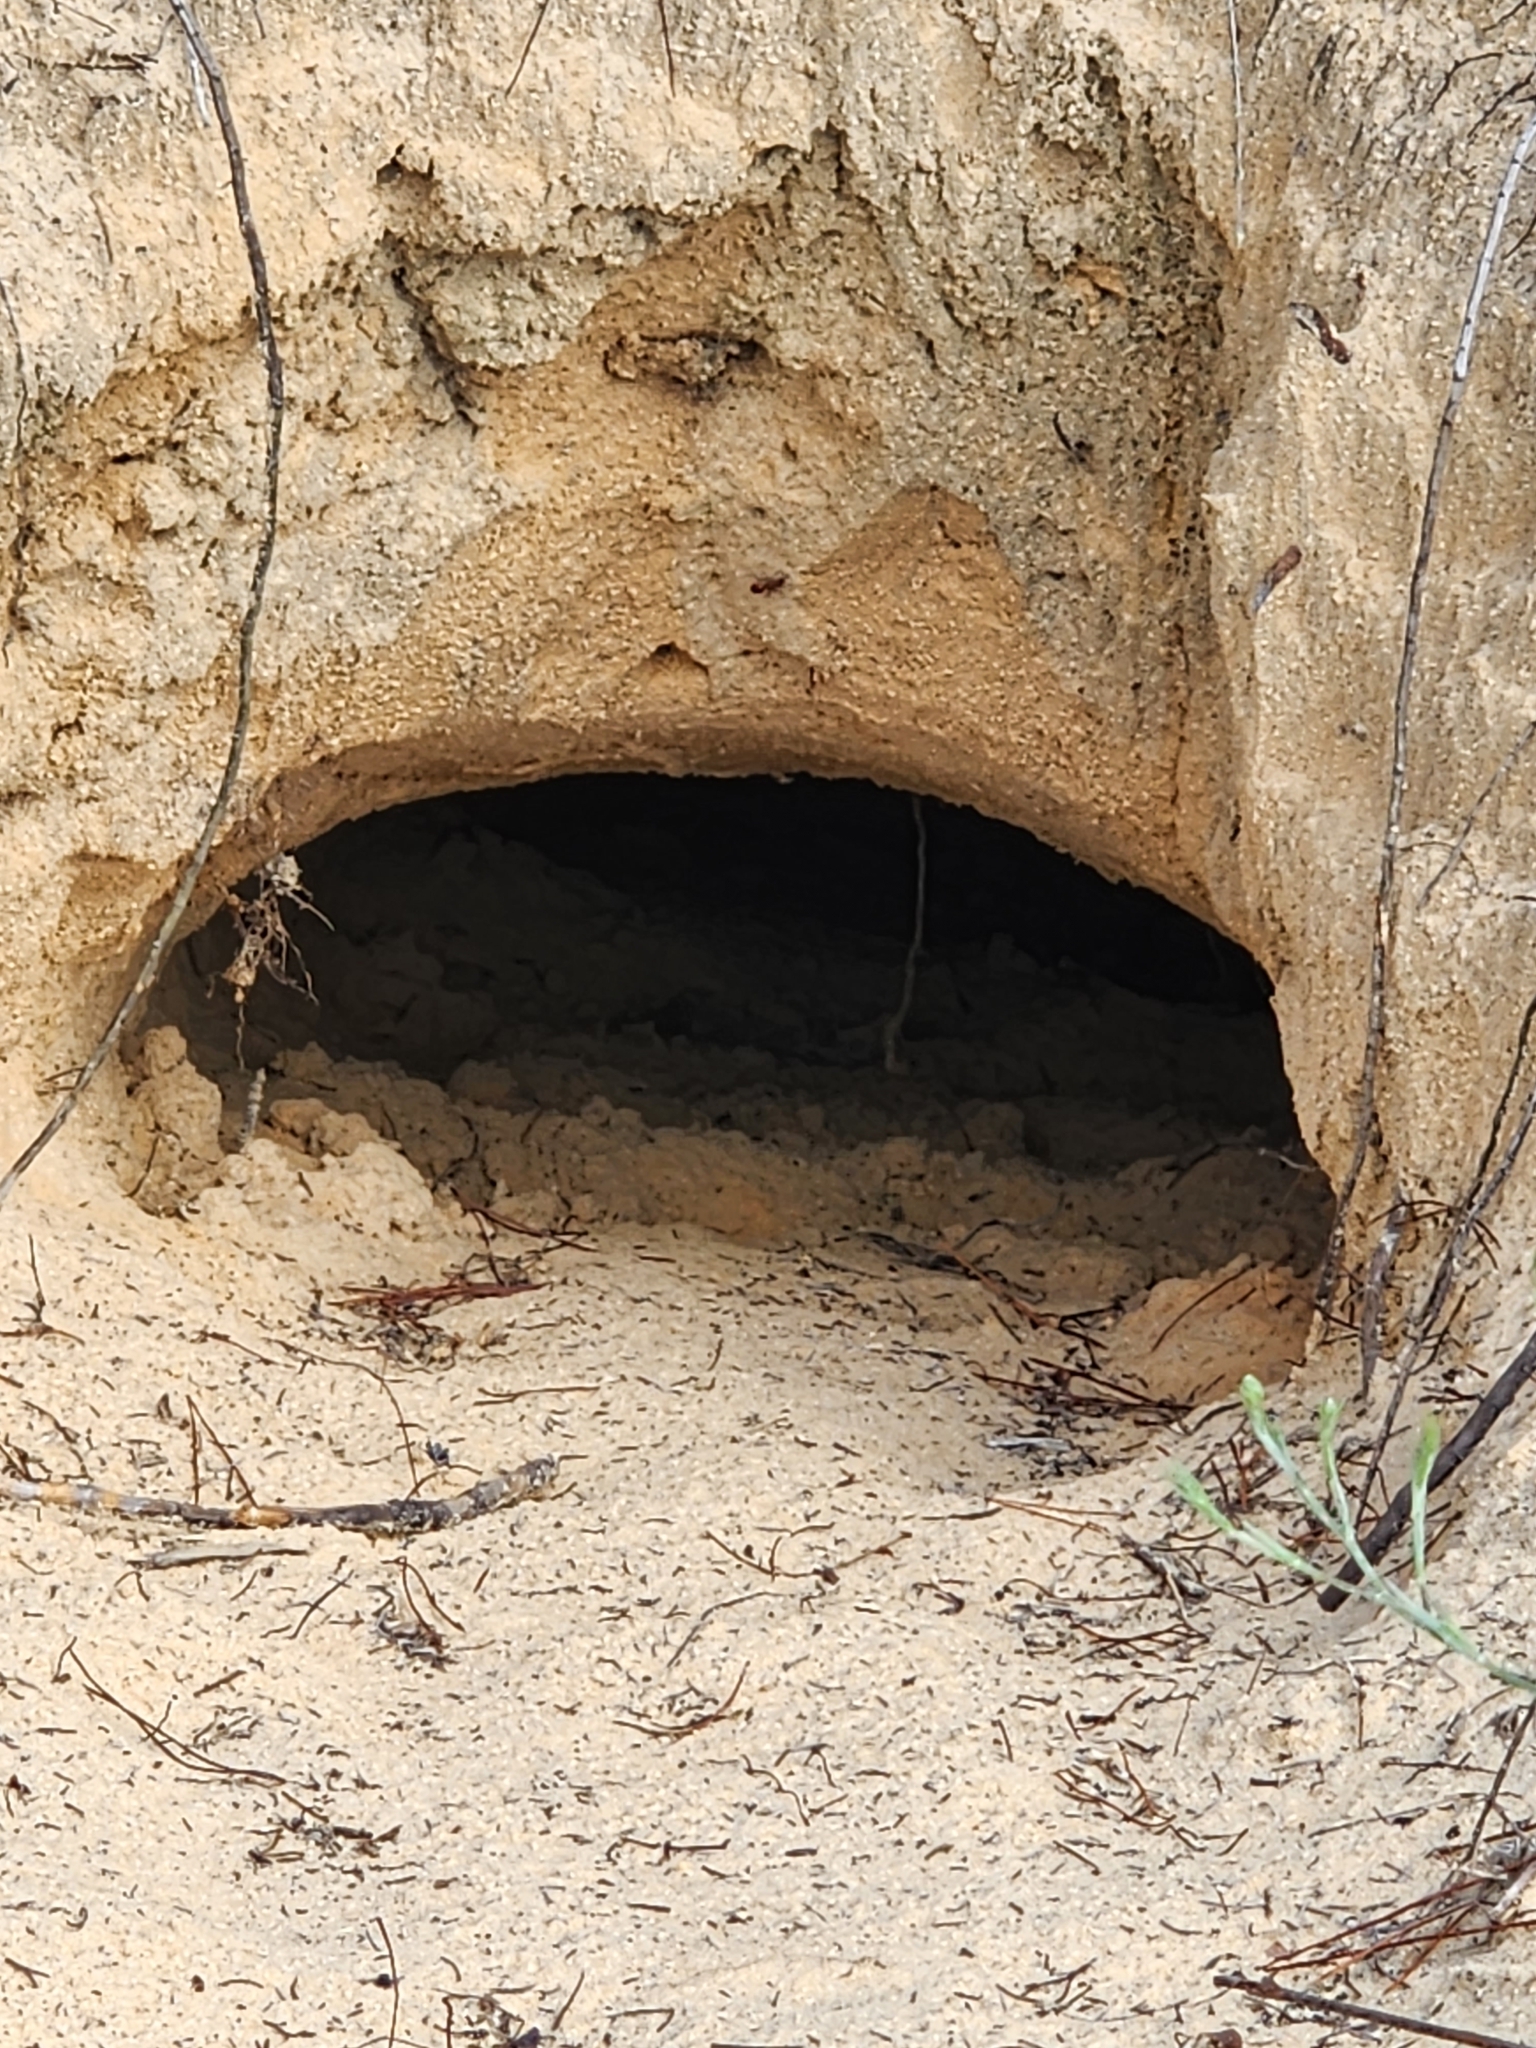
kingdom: Animalia
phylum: Chordata
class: Testudines
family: Testudinidae
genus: Gopherus
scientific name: Gopherus polyphemus
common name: Florida gopher tortoise
